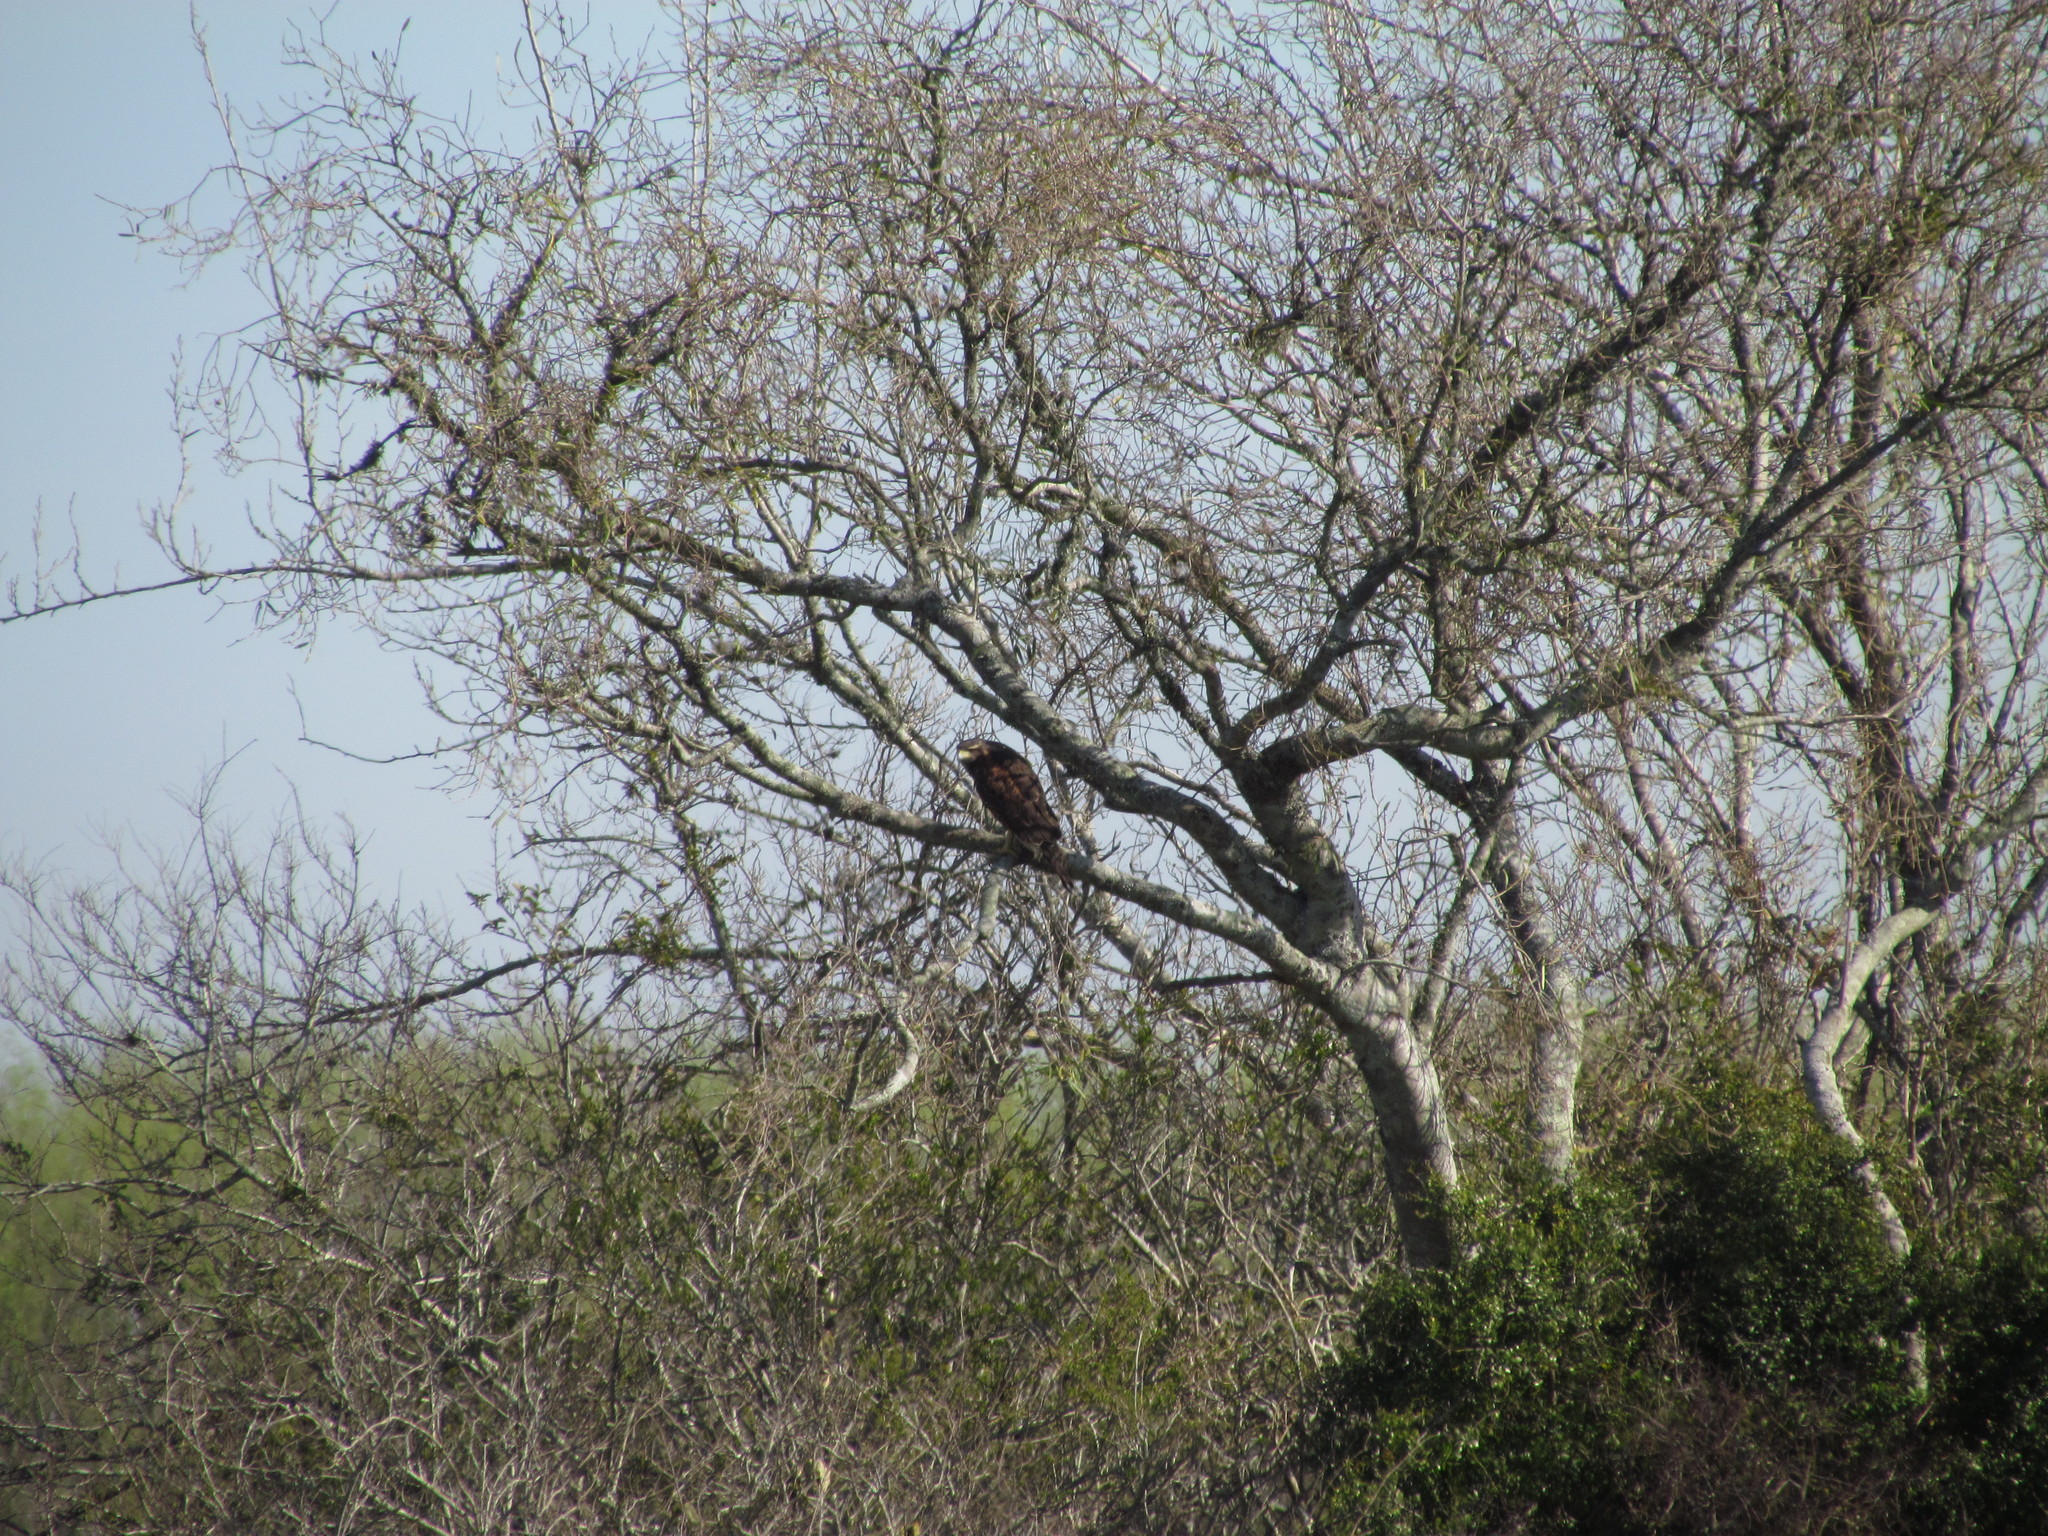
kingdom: Animalia
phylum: Chordata
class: Aves
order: Accipitriformes
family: Accipitridae
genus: Parabuteo
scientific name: Parabuteo unicinctus
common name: Harris's hawk
